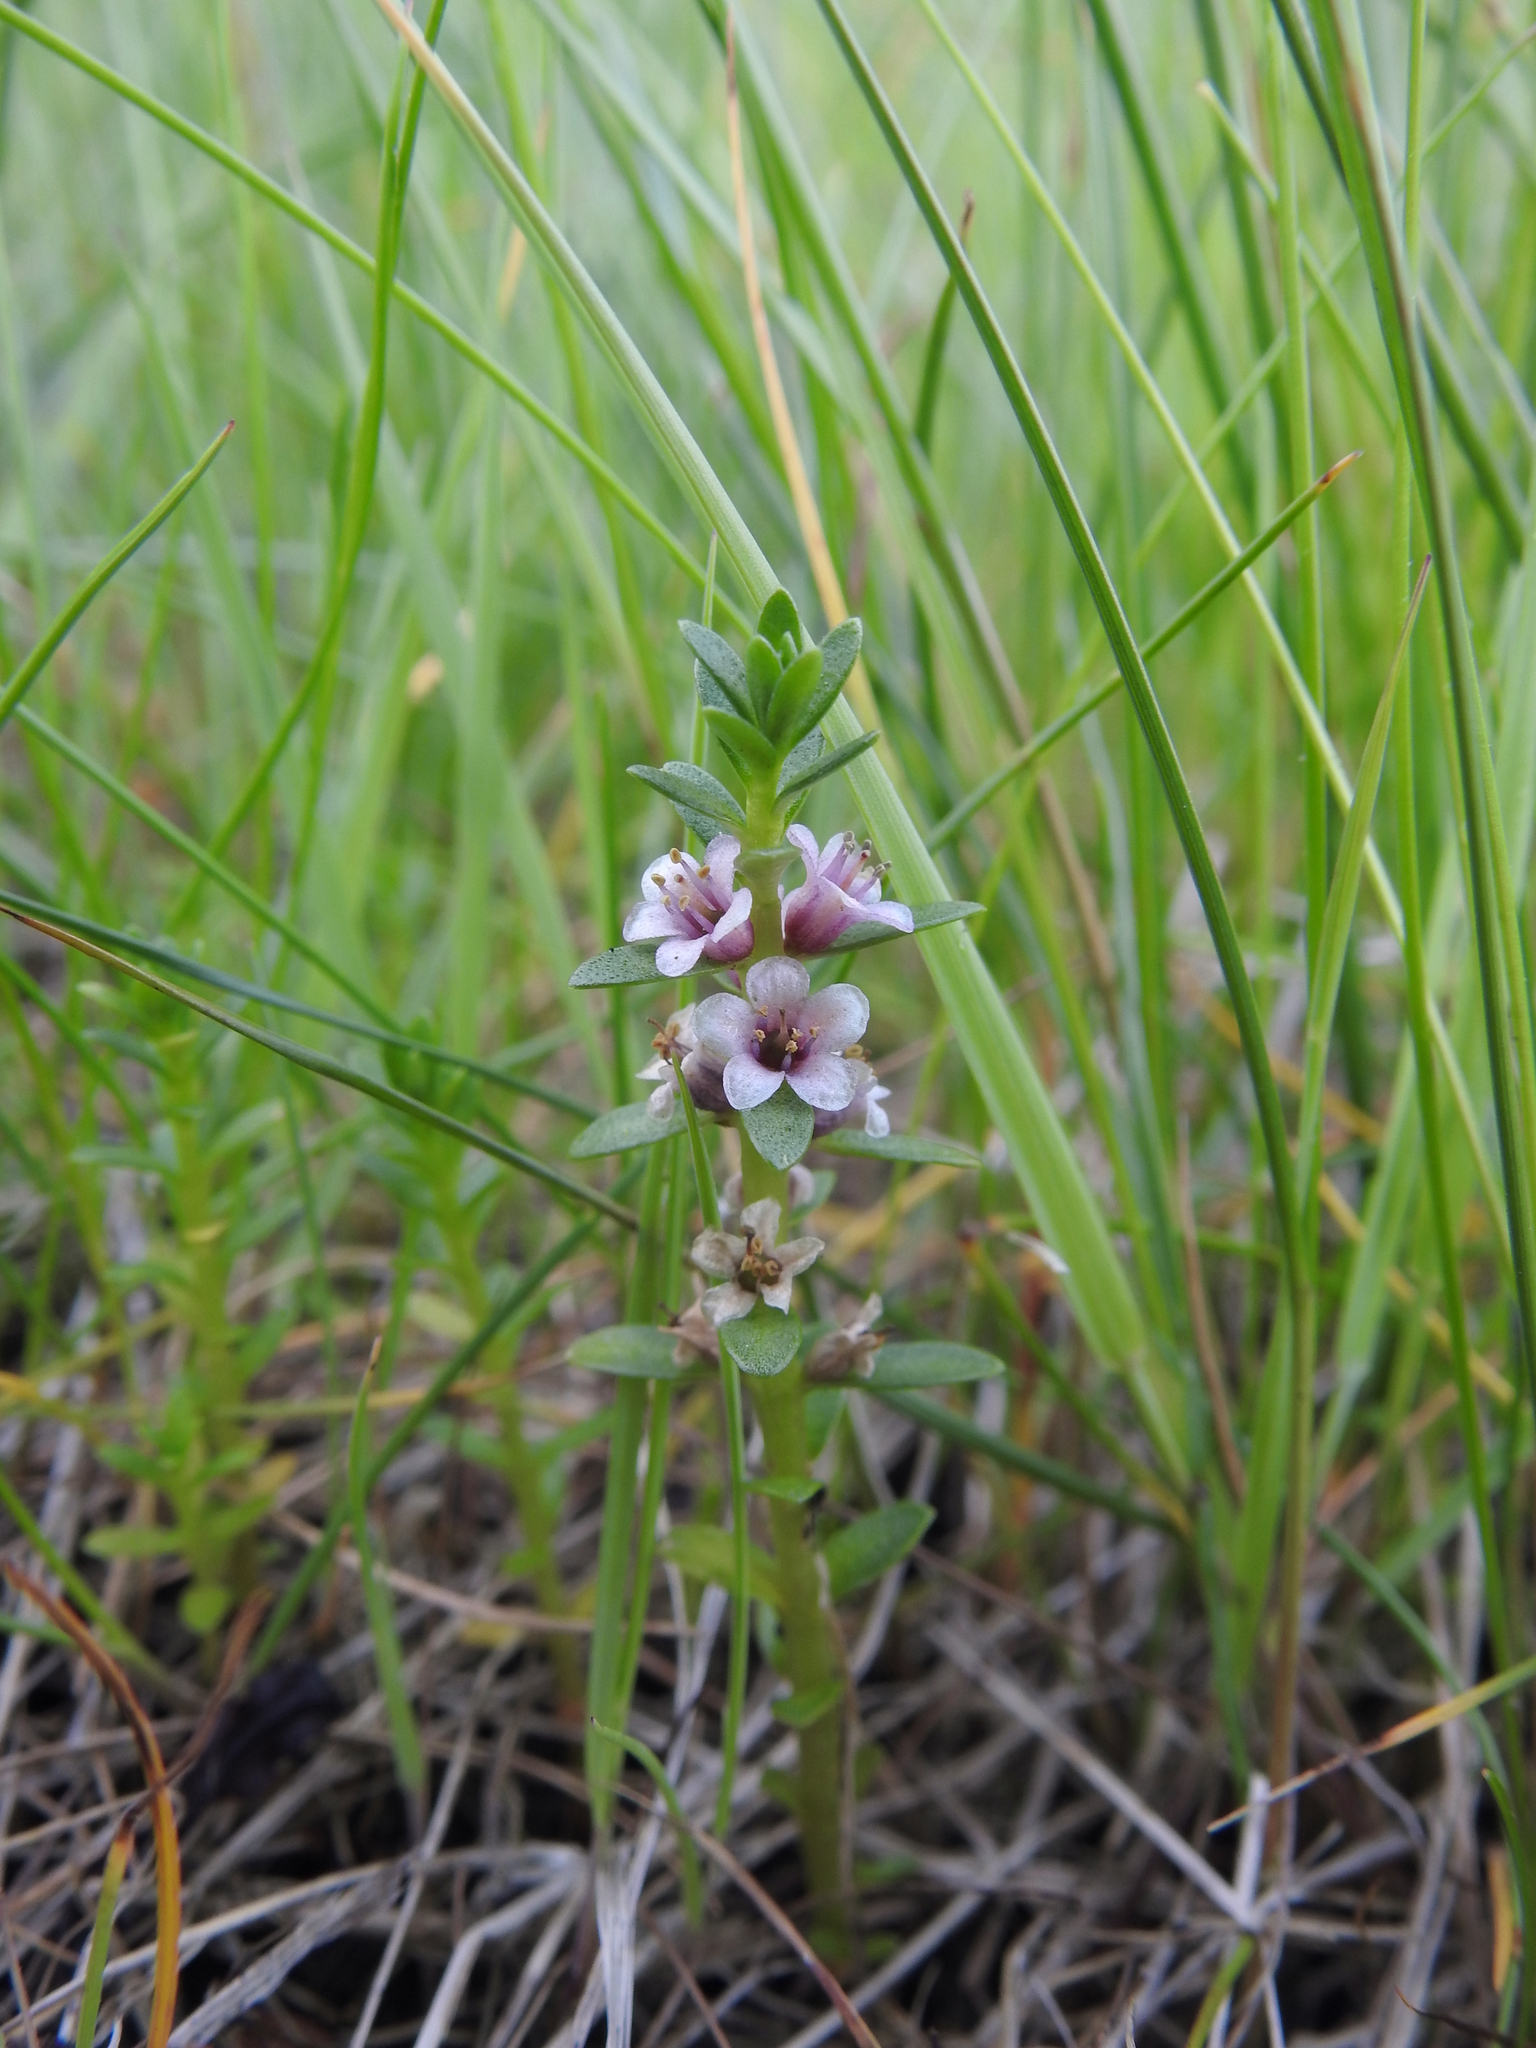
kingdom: Plantae
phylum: Tracheophyta
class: Magnoliopsida
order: Ericales
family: Primulaceae
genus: Lysimachia
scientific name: Lysimachia maritima
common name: Sea milkwort
